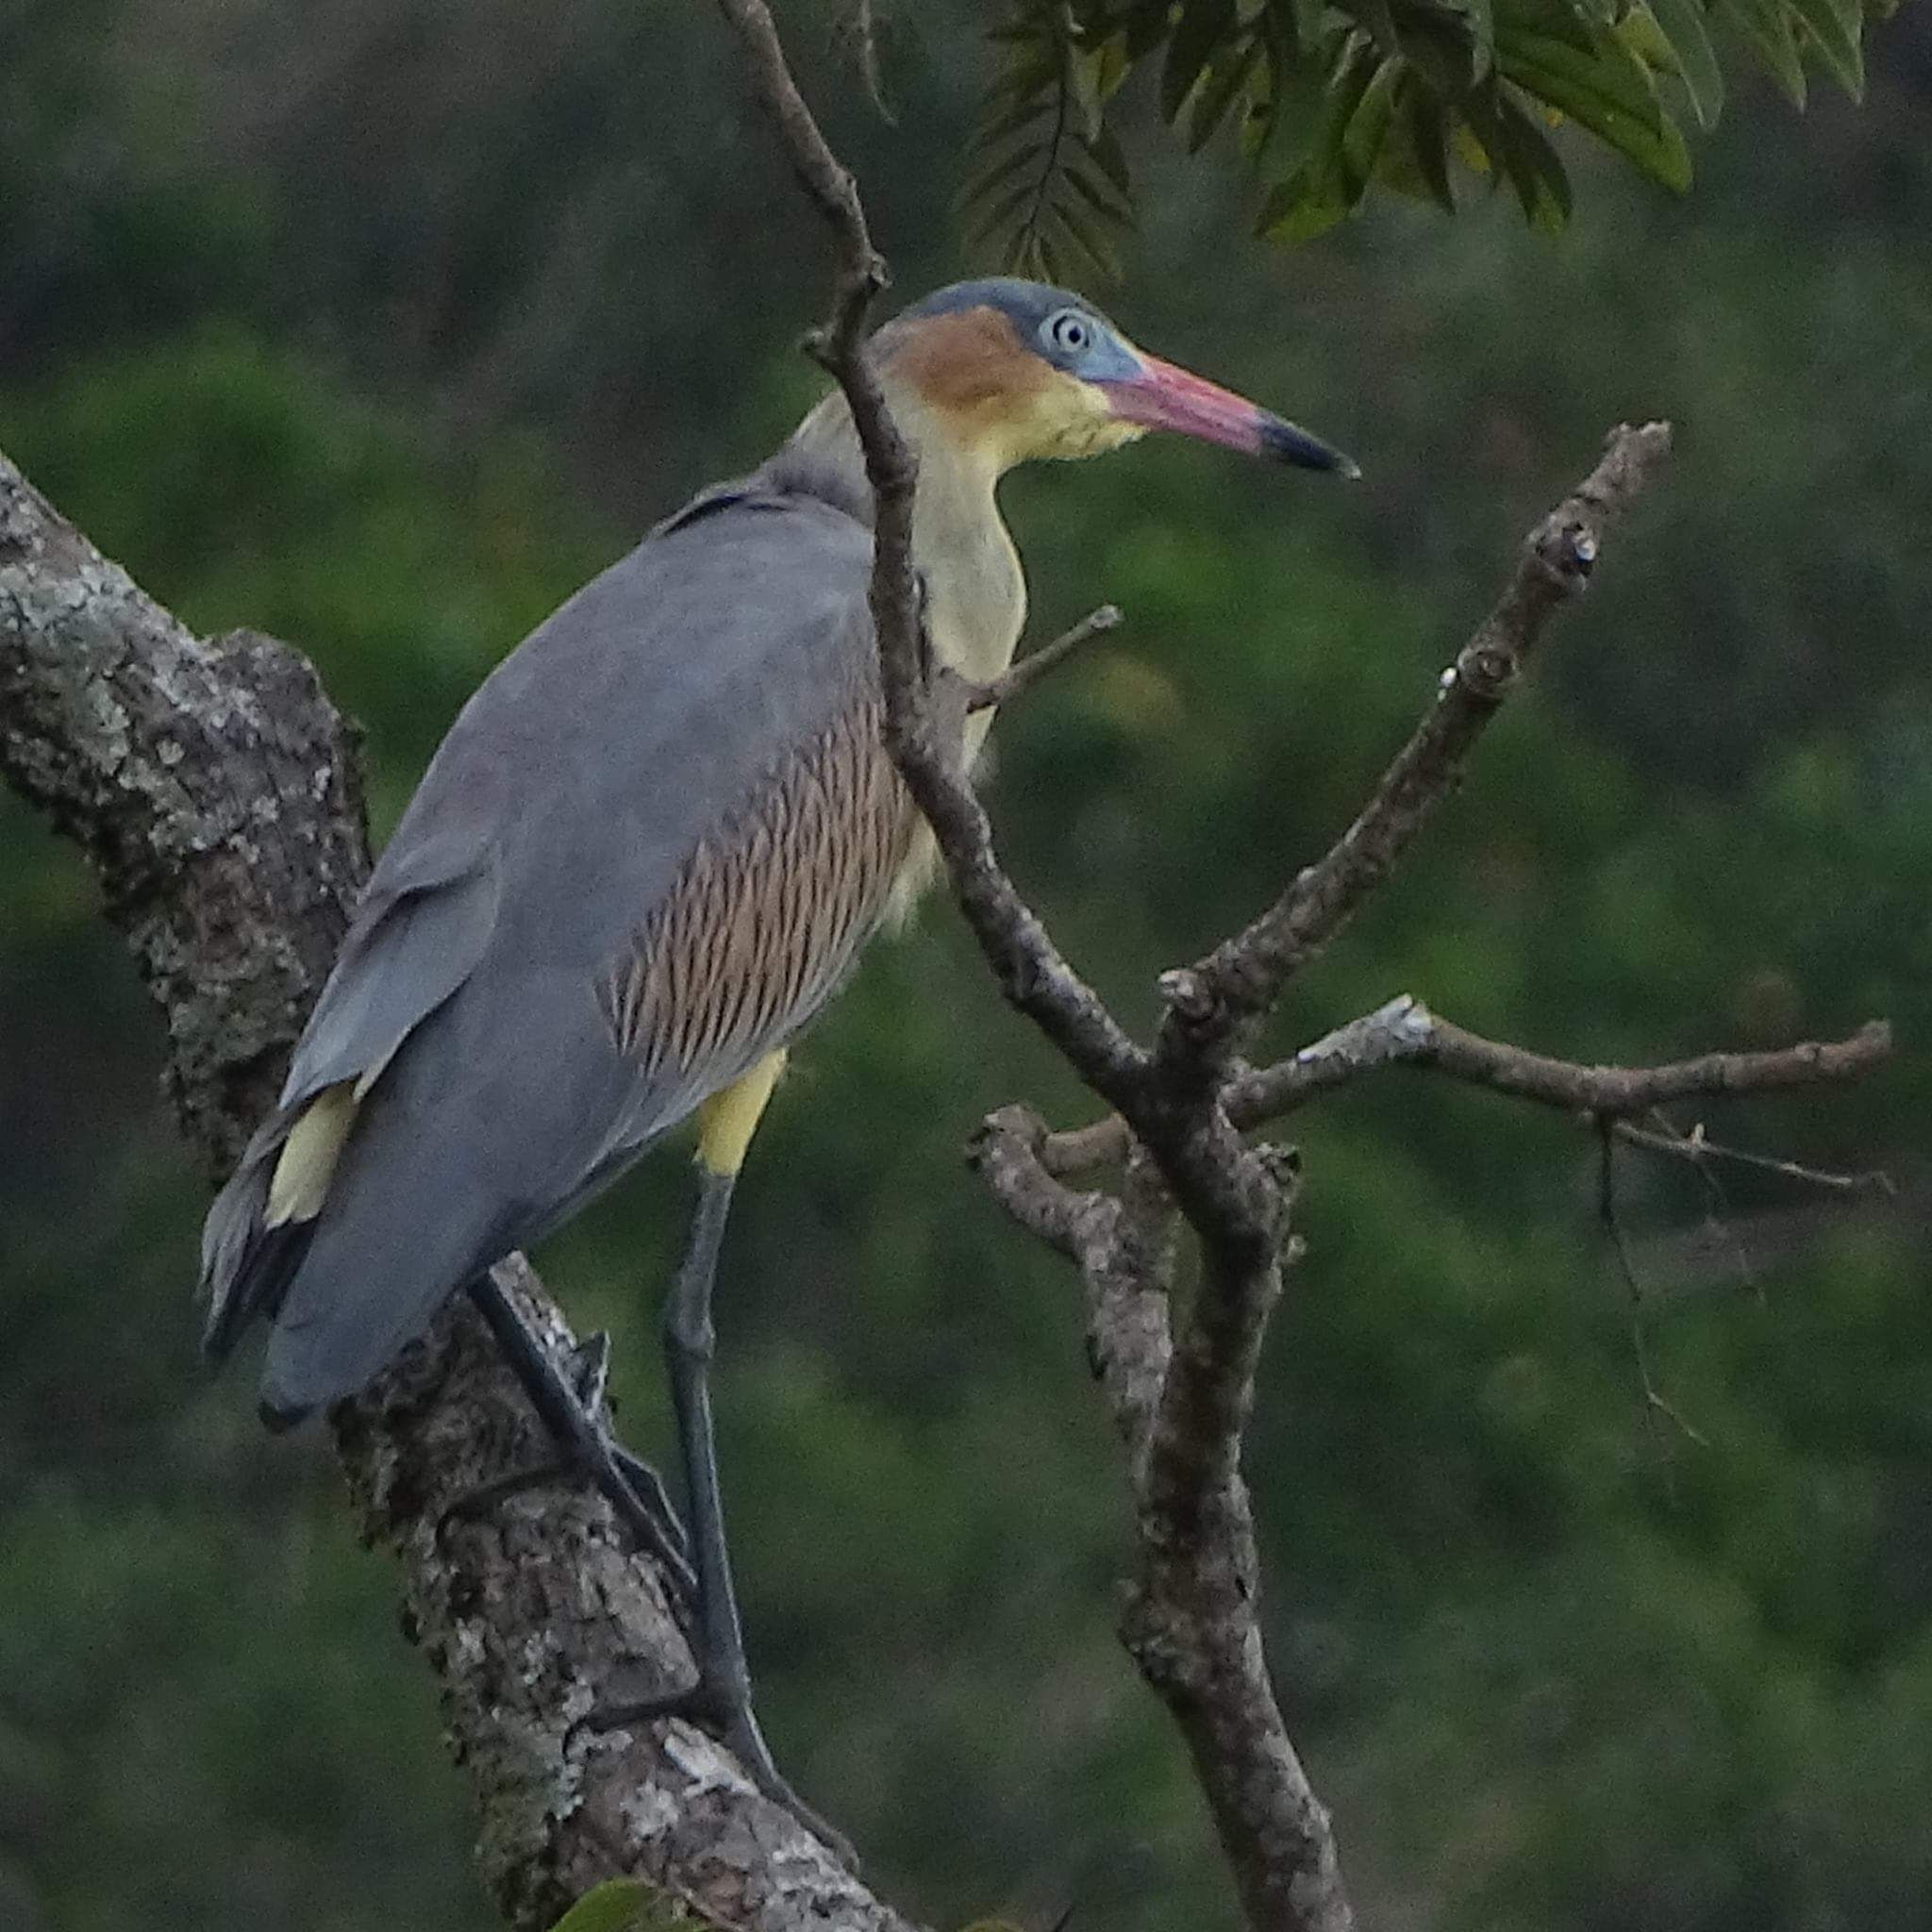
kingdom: Animalia
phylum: Chordata
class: Aves
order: Pelecaniformes
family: Ardeidae
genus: Syrigma
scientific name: Syrigma sibilatrix
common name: Whistling heron
